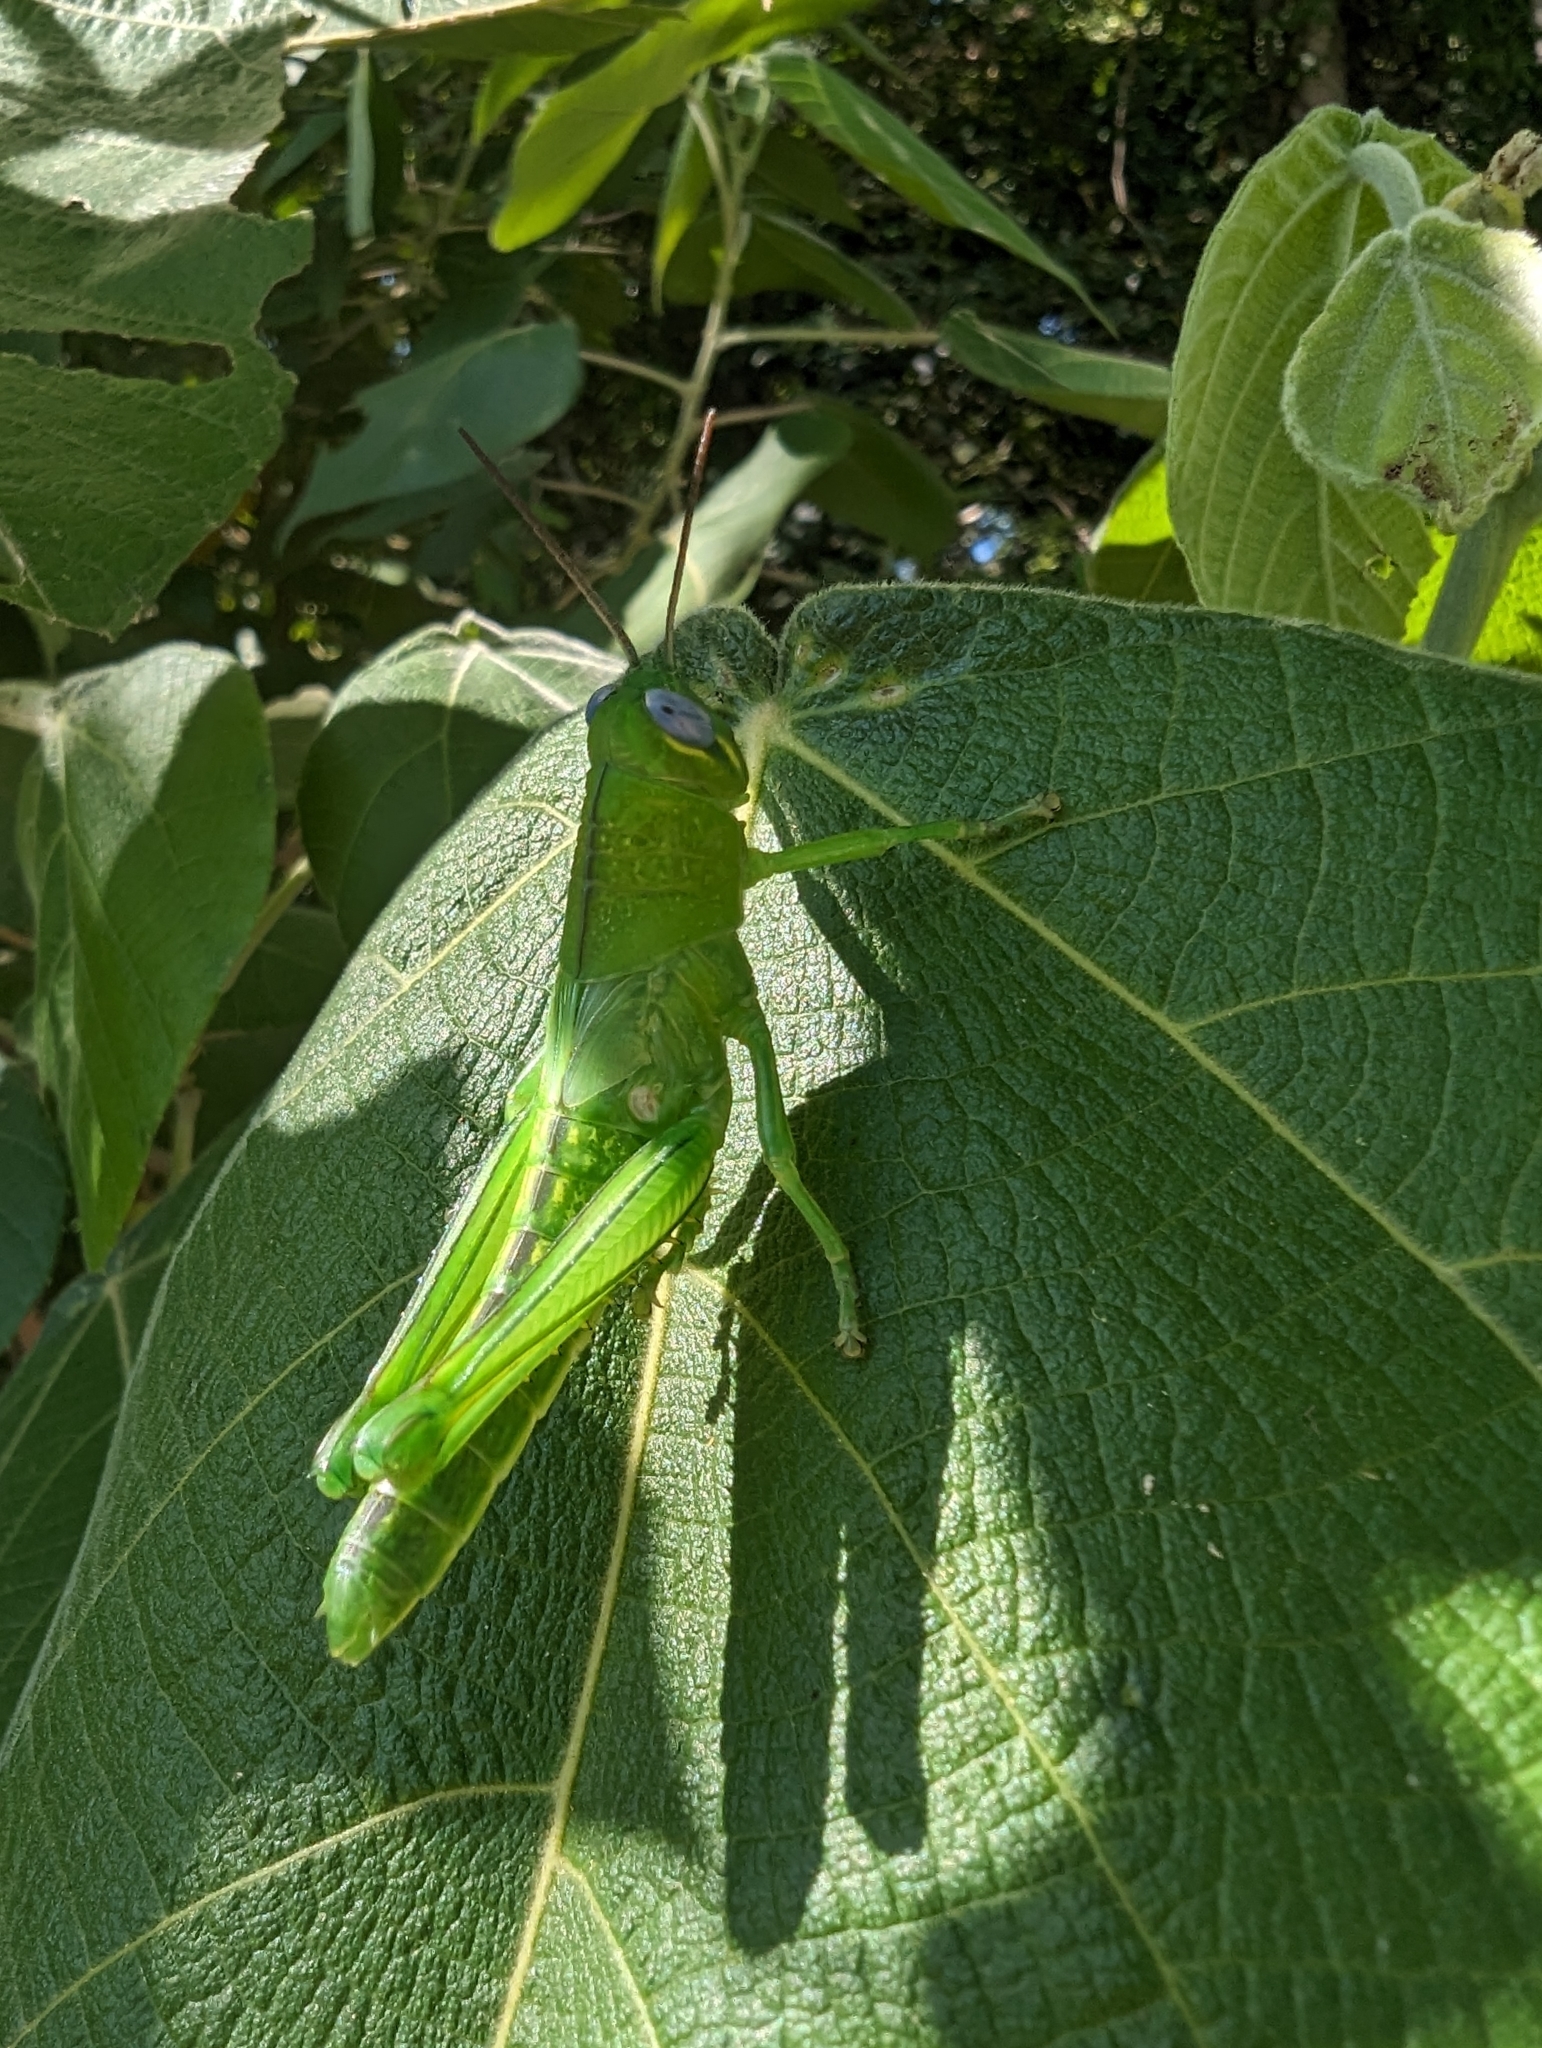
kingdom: Animalia
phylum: Arthropoda
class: Insecta
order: Orthoptera
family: Acrididae
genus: Valanga
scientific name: Valanga irregularis
